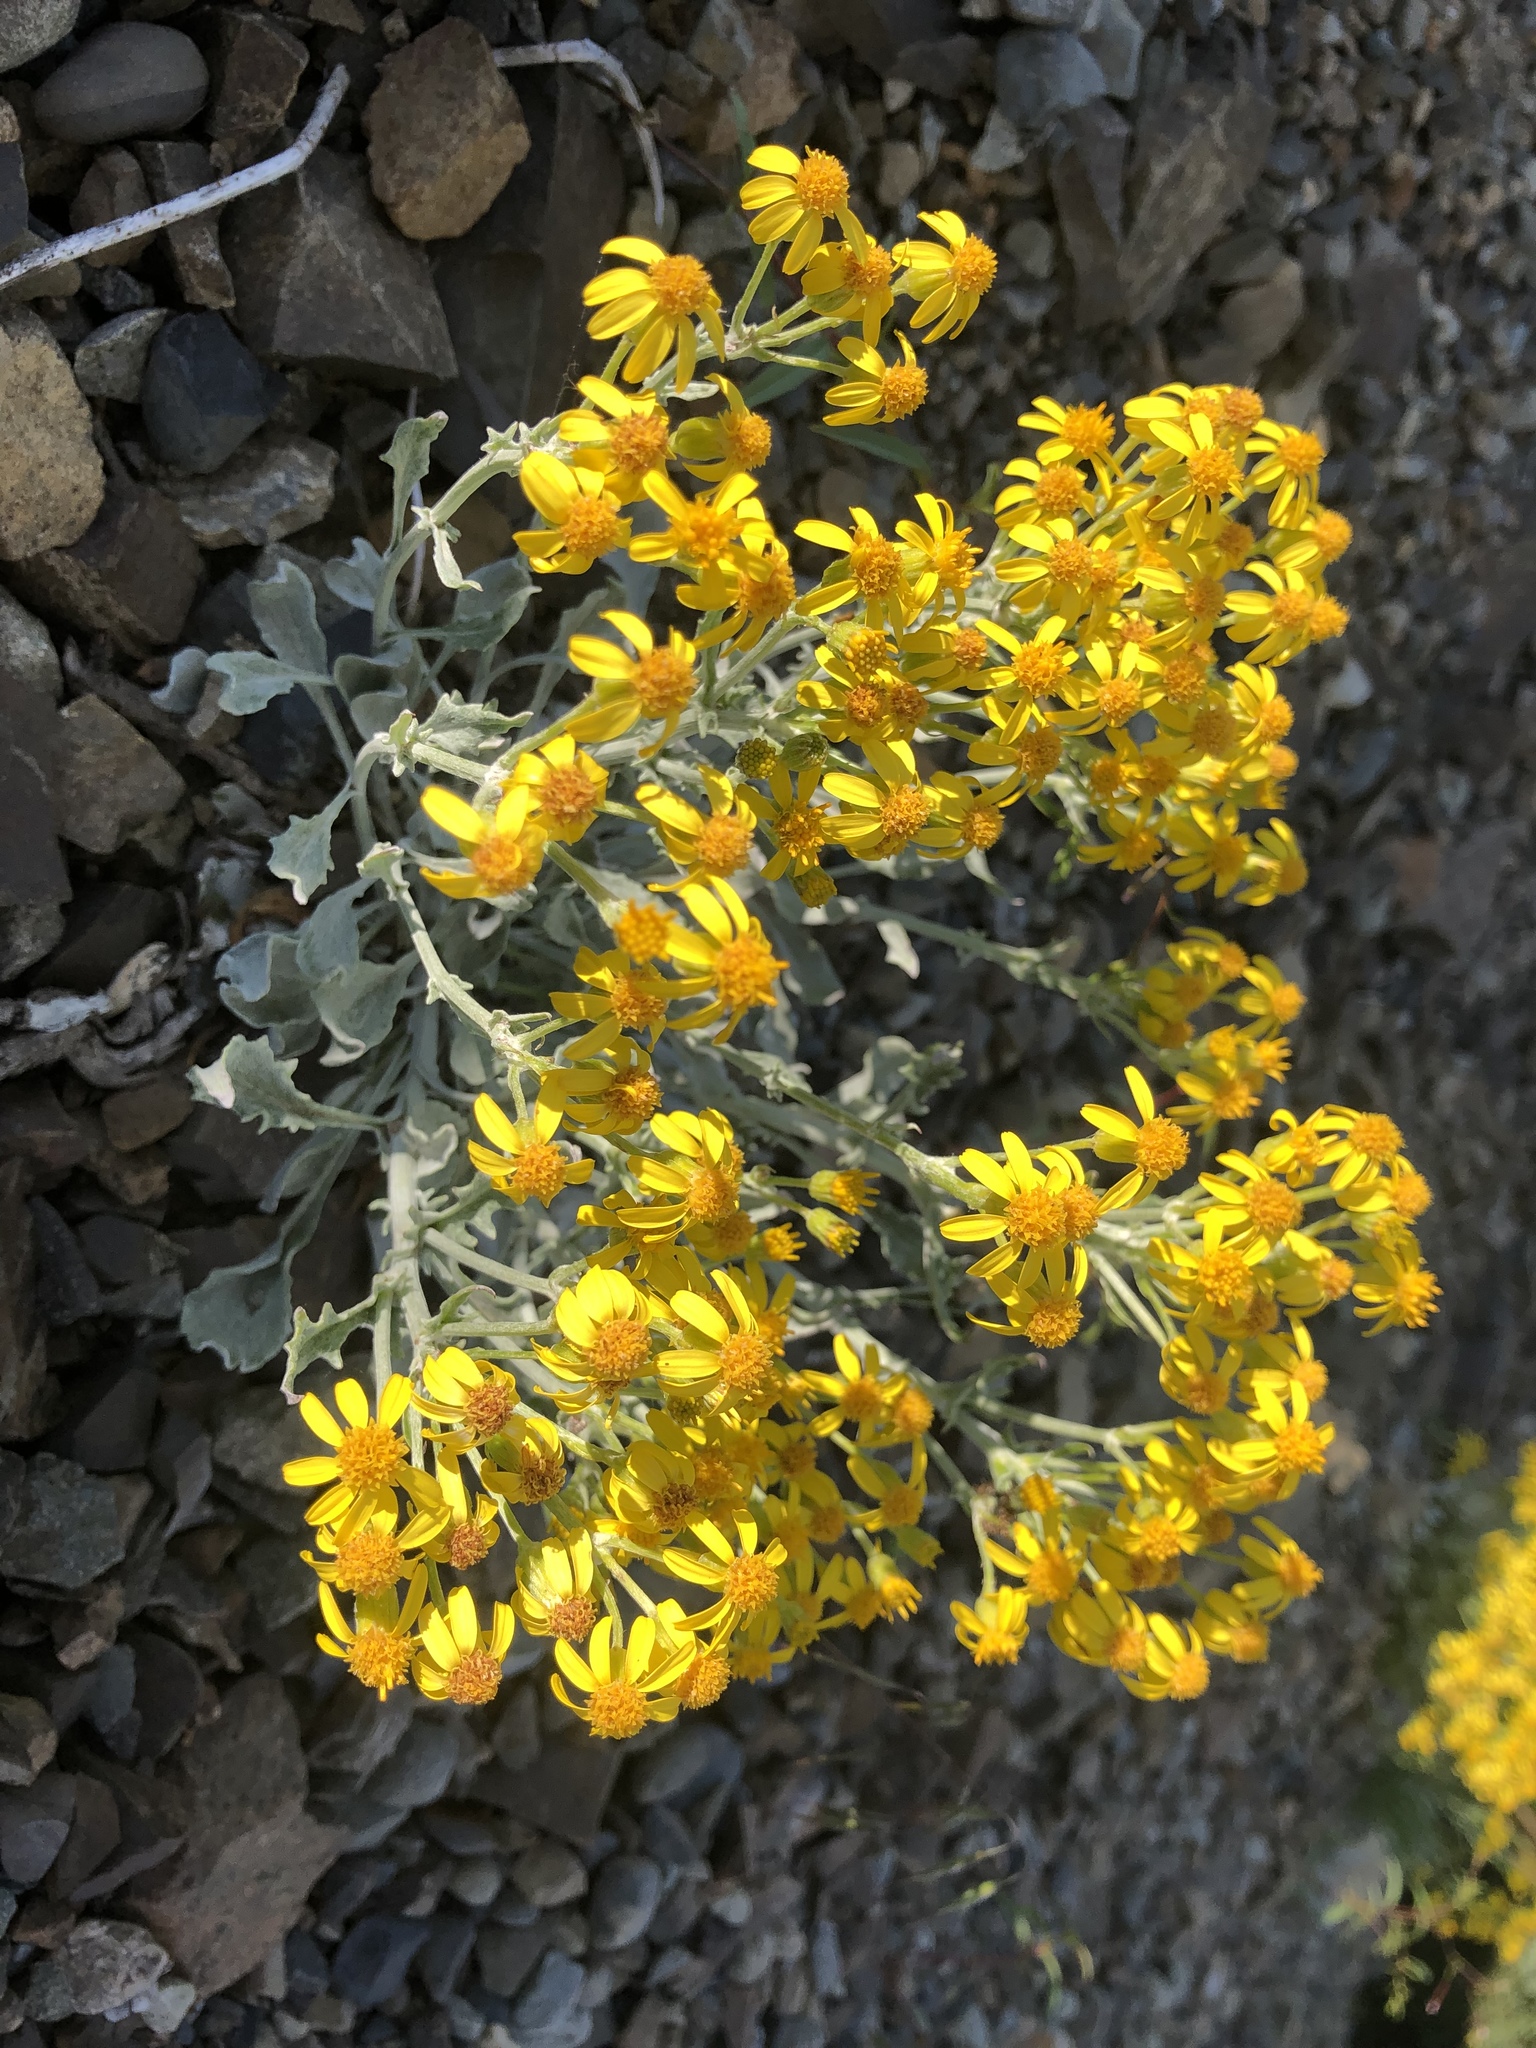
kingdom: Plantae
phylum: Tracheophyta
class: Magnoliopsida
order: Asterales
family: Asteraceae
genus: Packera
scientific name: Packera cana
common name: Woolly groundsel
